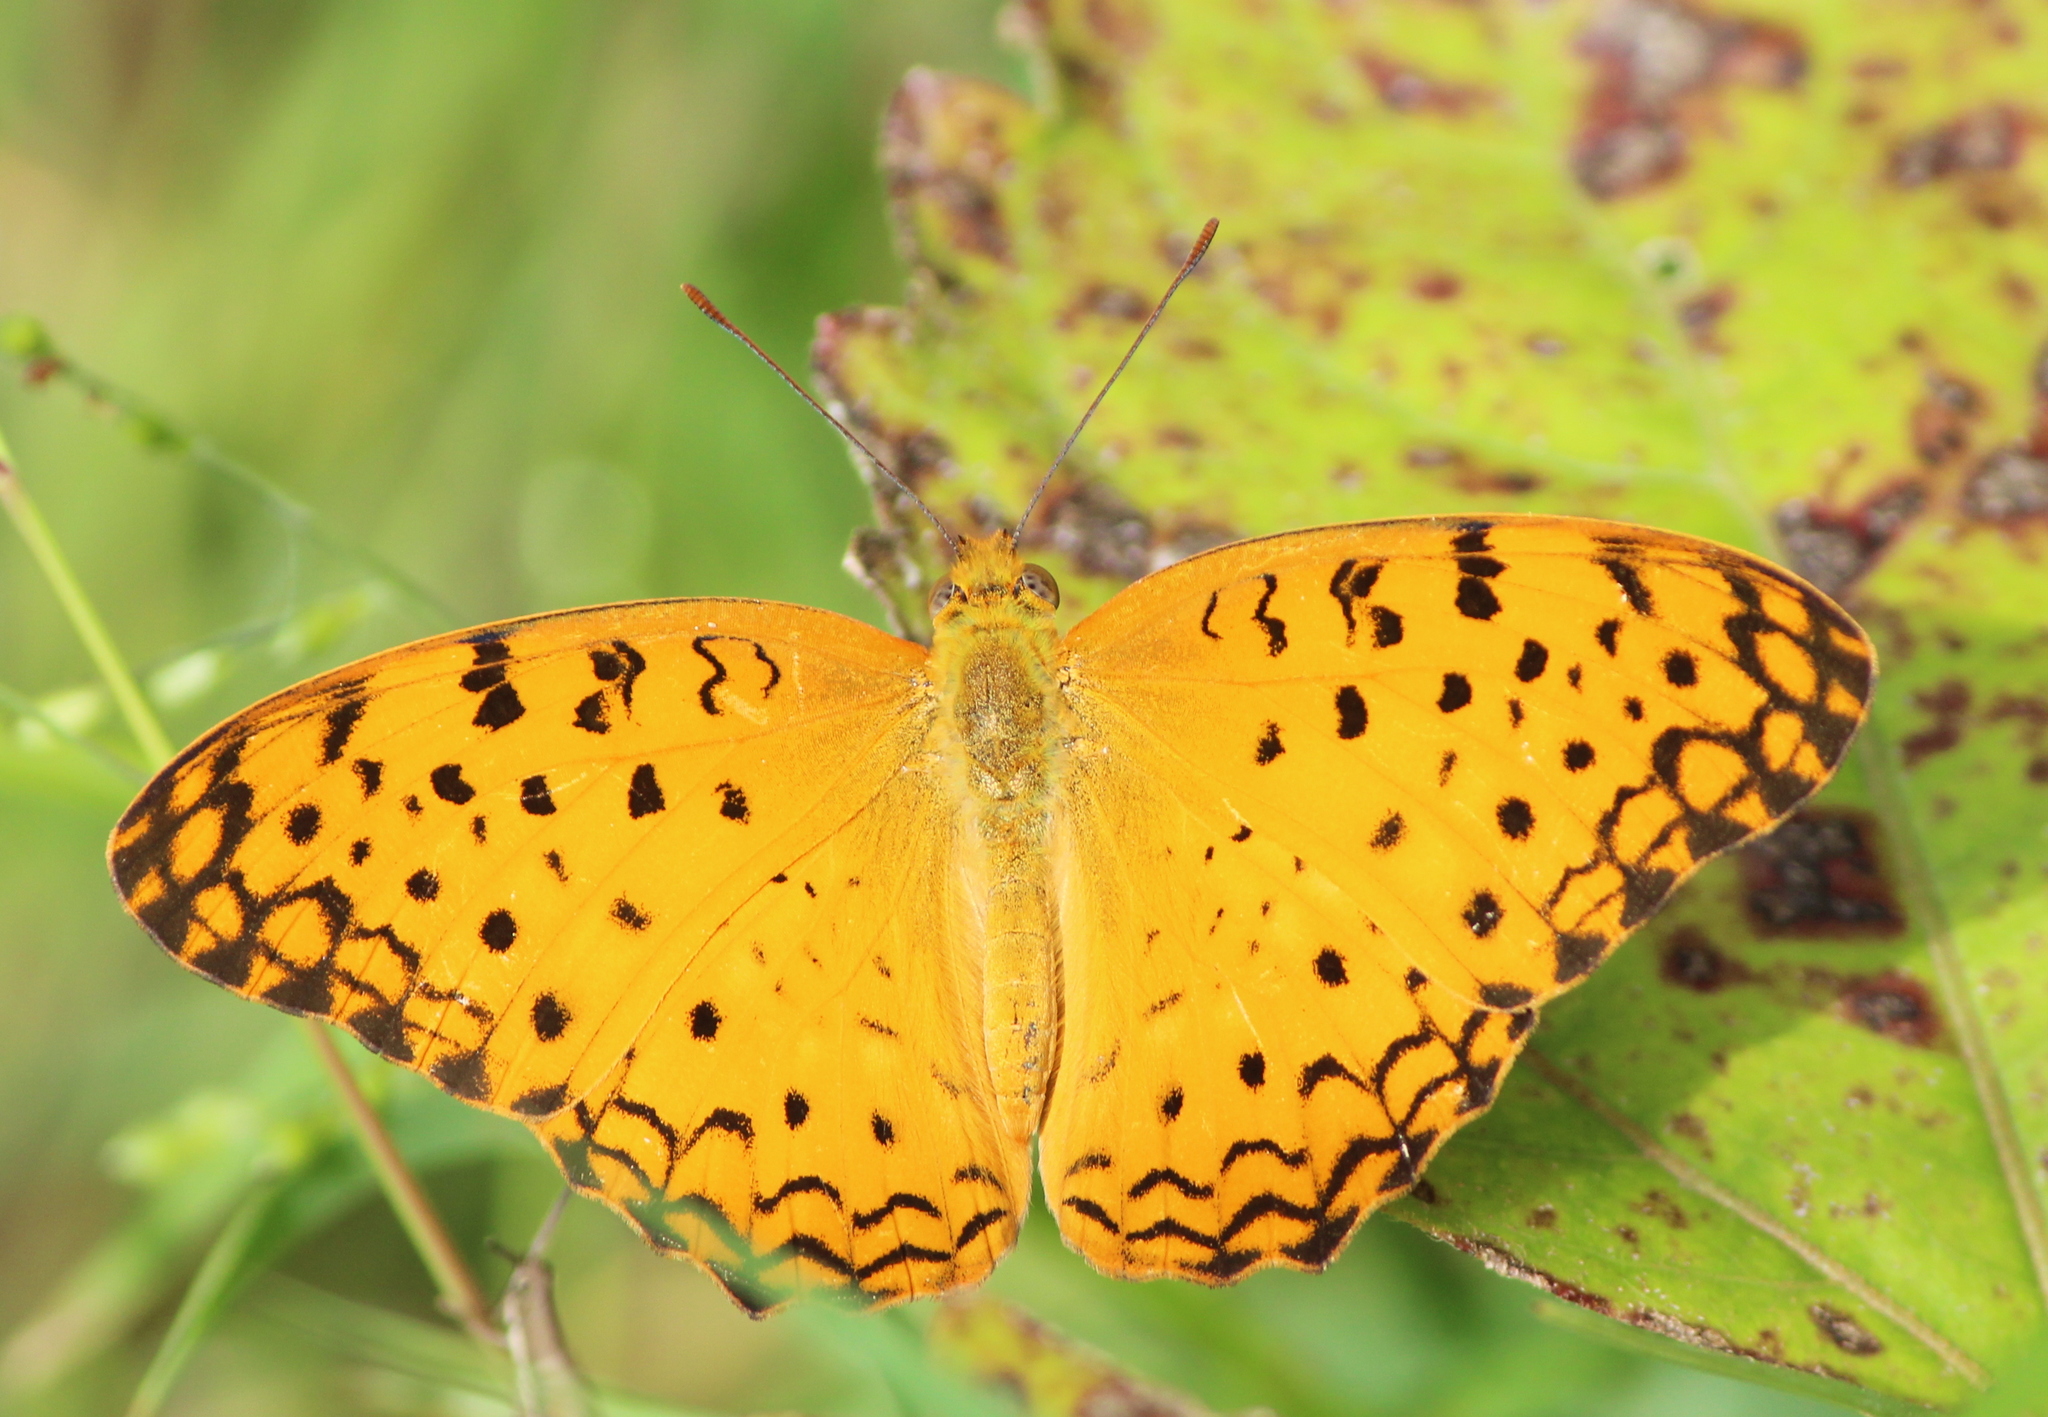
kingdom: Animalia
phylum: Arthropoda
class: Insecta
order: Lepidoptera
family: Nymphalidae
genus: Phalanta
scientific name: Phalanta phalantha
